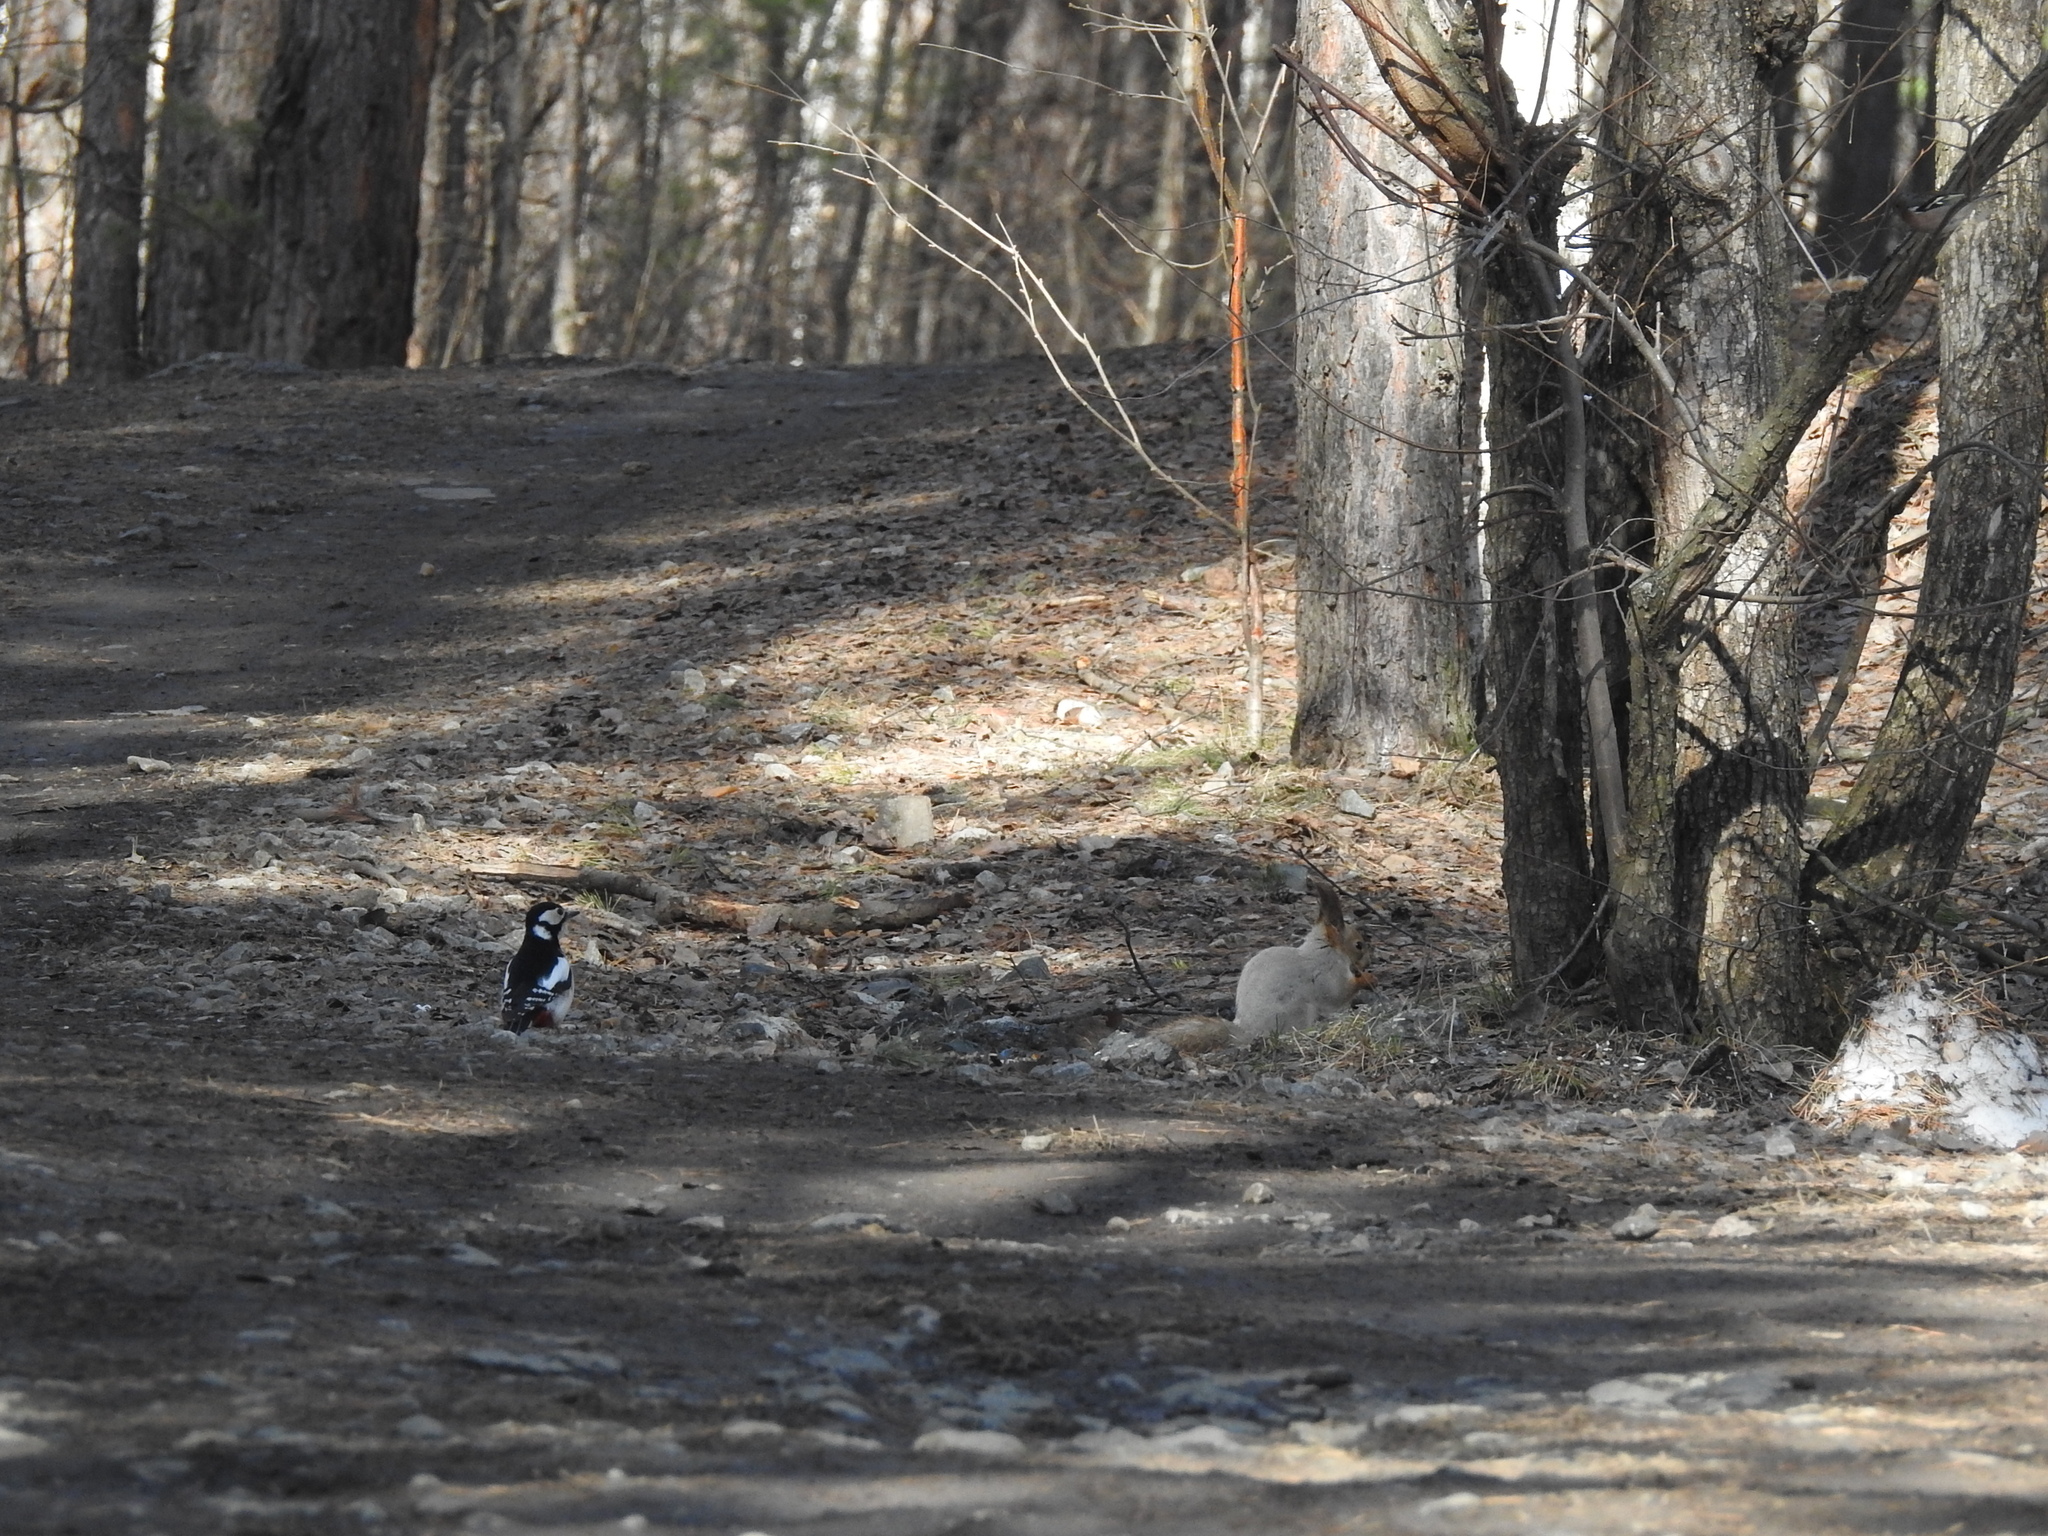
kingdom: Animalia
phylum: Chordata
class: Aves
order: Piciformes
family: Picidae
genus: Dendrocopos
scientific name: Dendrocopos major
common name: Great spotted woodpecker
